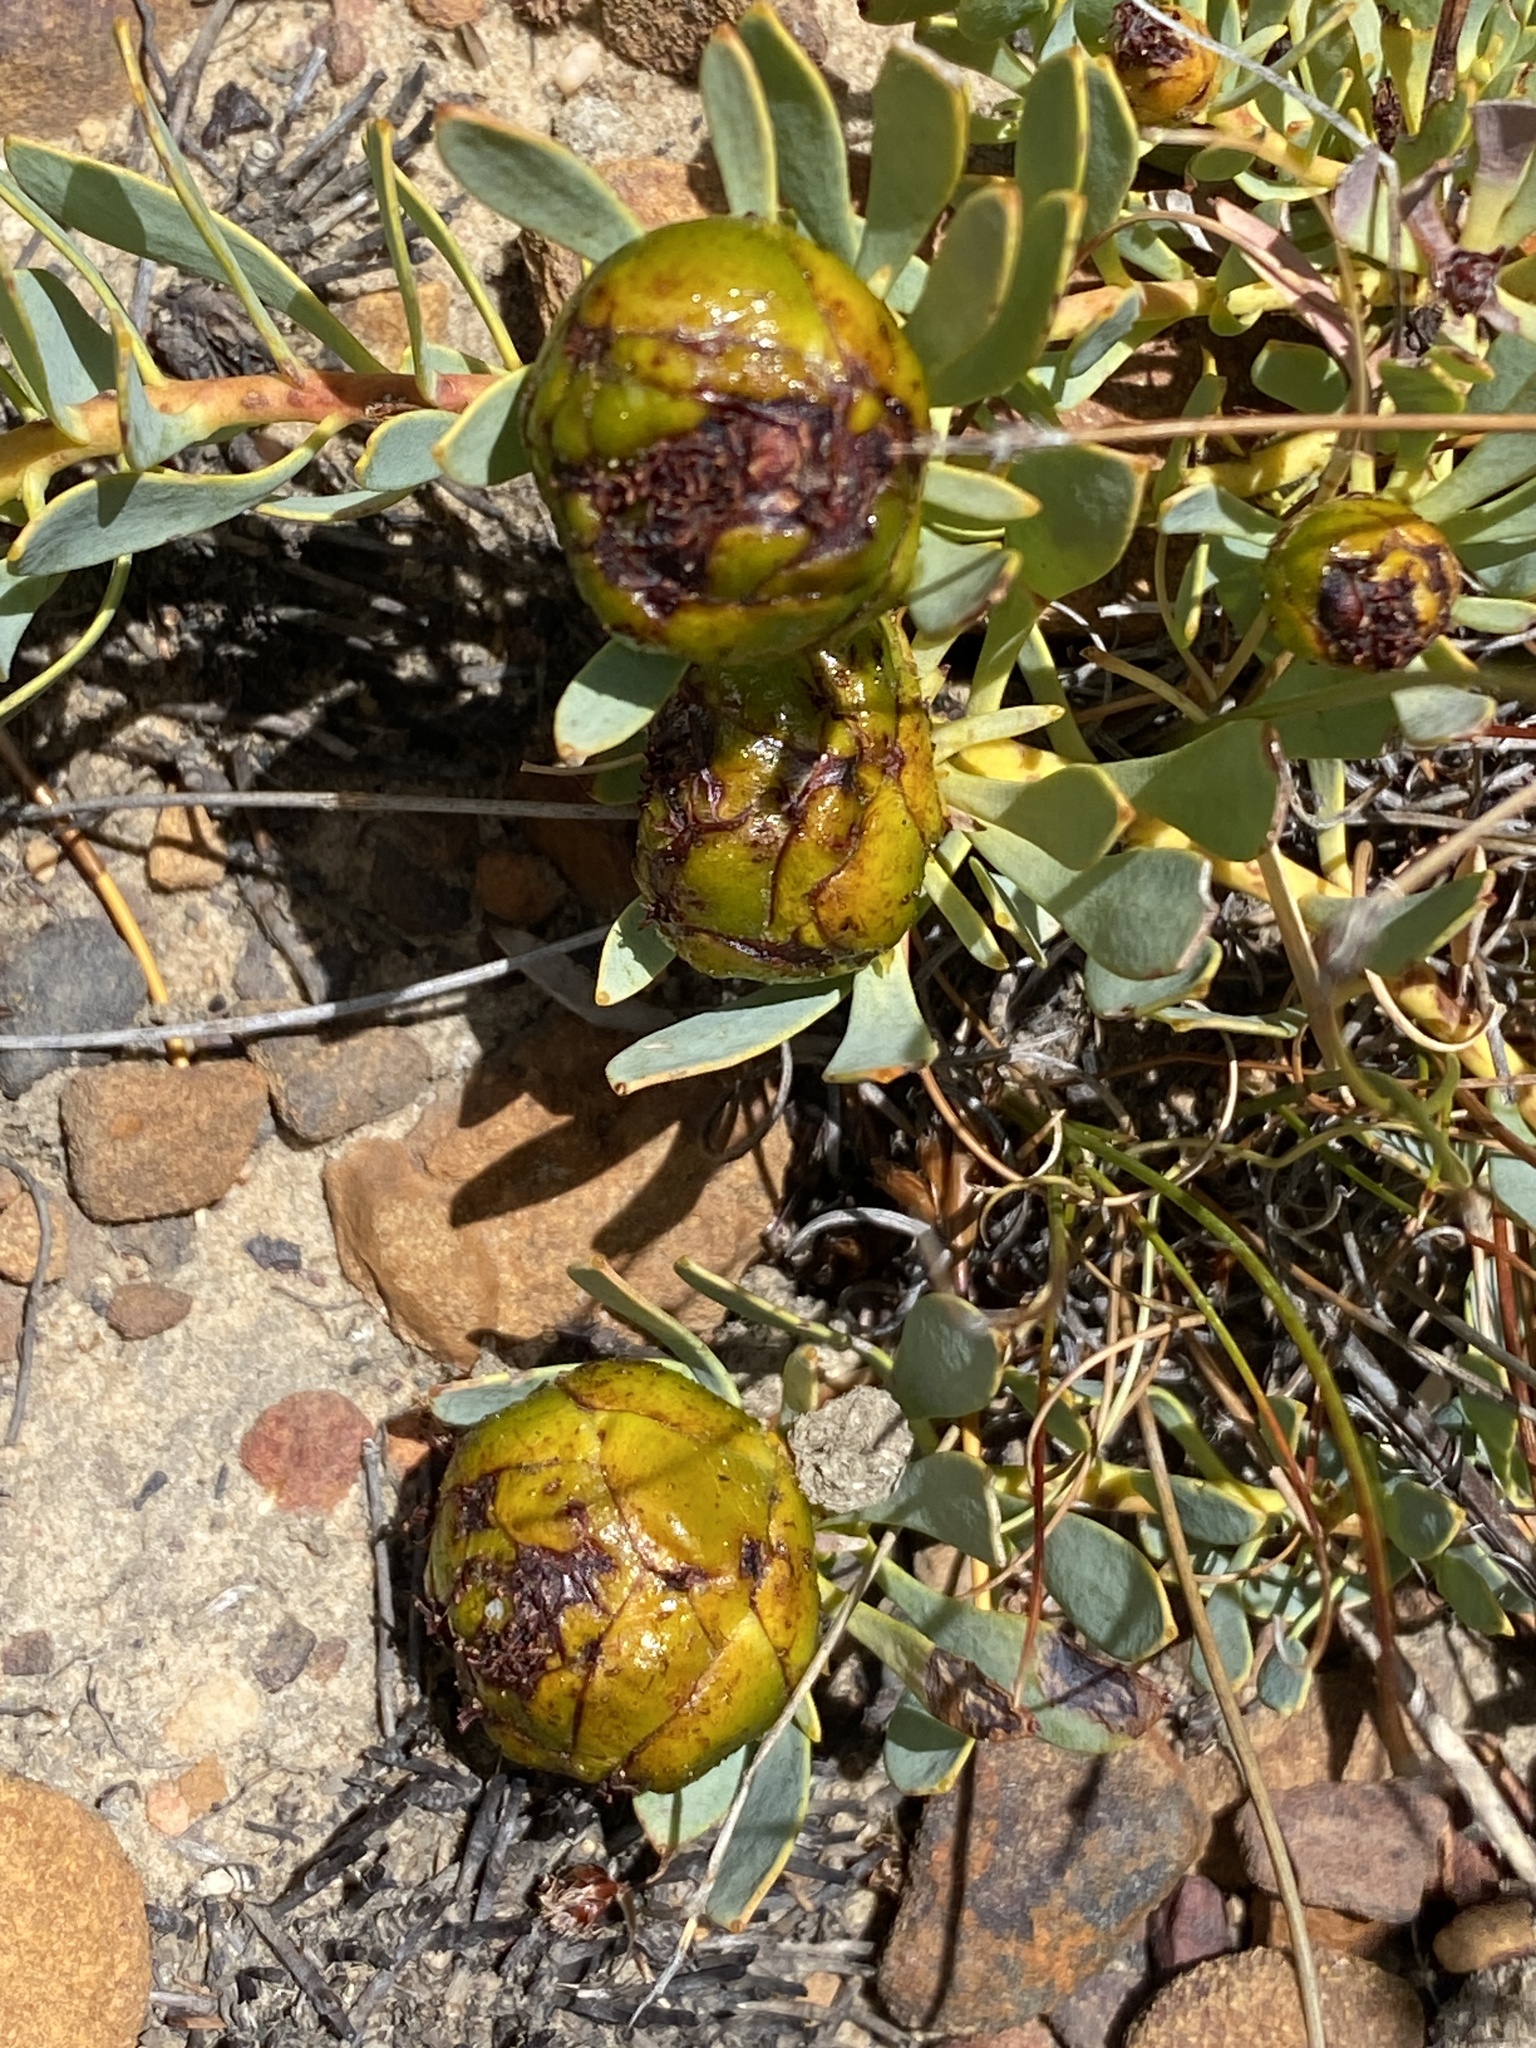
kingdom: Plantae
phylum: Tracheophyta
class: Magnoliopsida
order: Proteales
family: Proteaceae
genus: Leucadendron
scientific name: Leucadendron arcuatum
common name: Red-edge conebush
